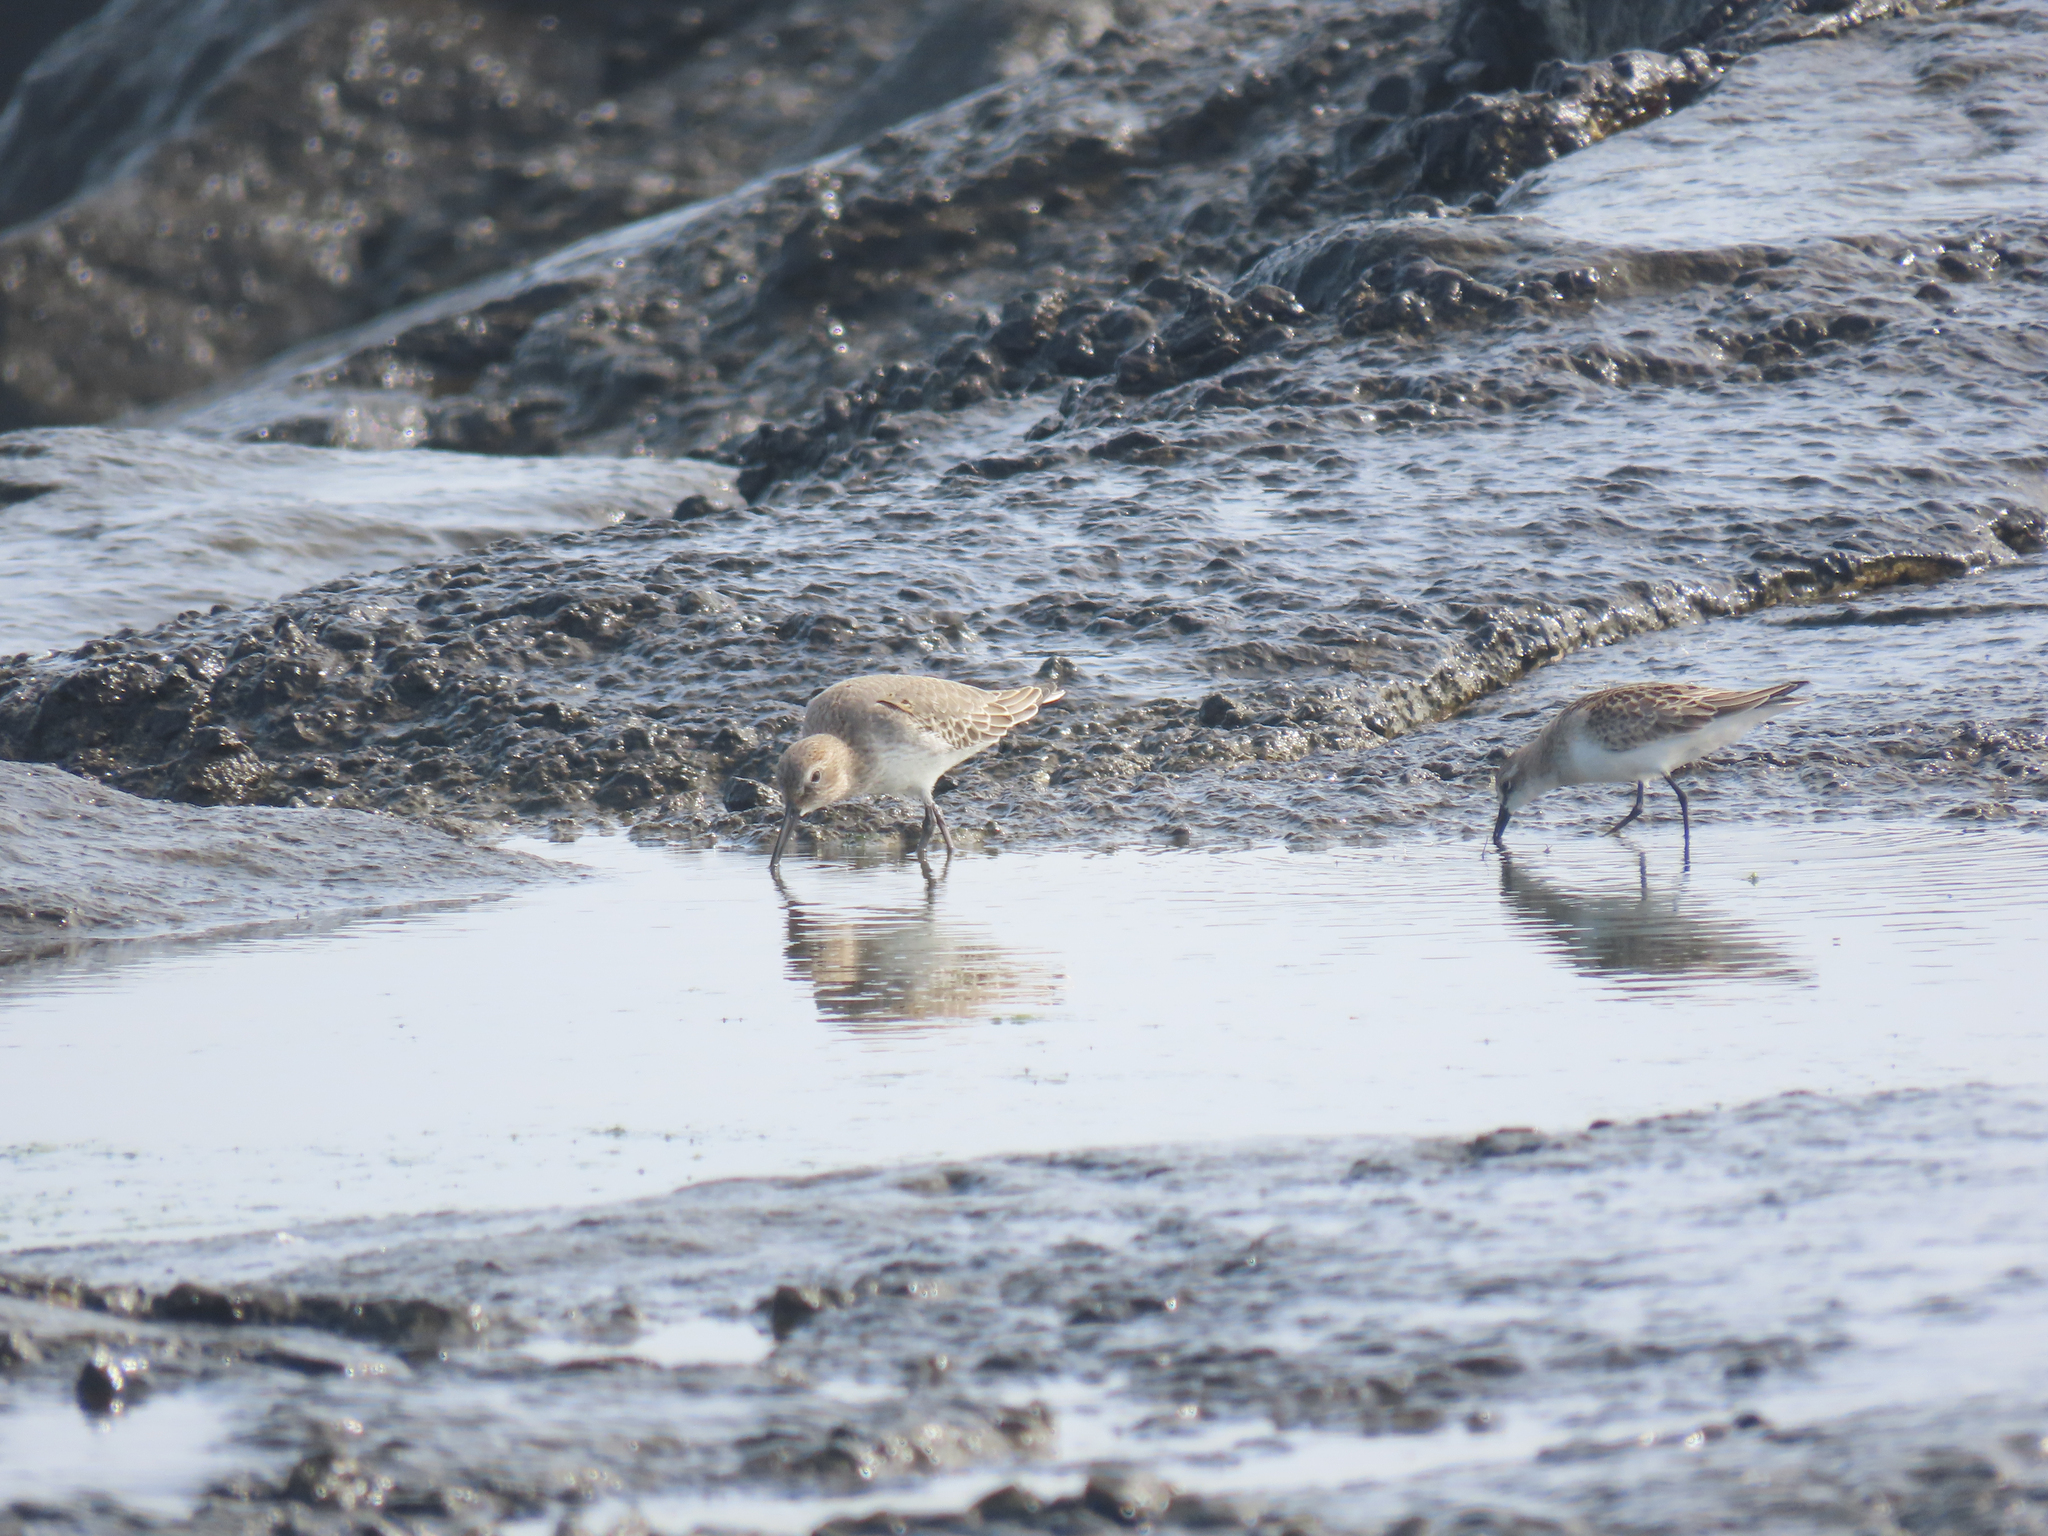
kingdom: Animalia
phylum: Chordata
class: Aves
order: Charadriiformes
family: Scolopacidae
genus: Calidris
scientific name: Calidris alpina
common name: Dunlin
